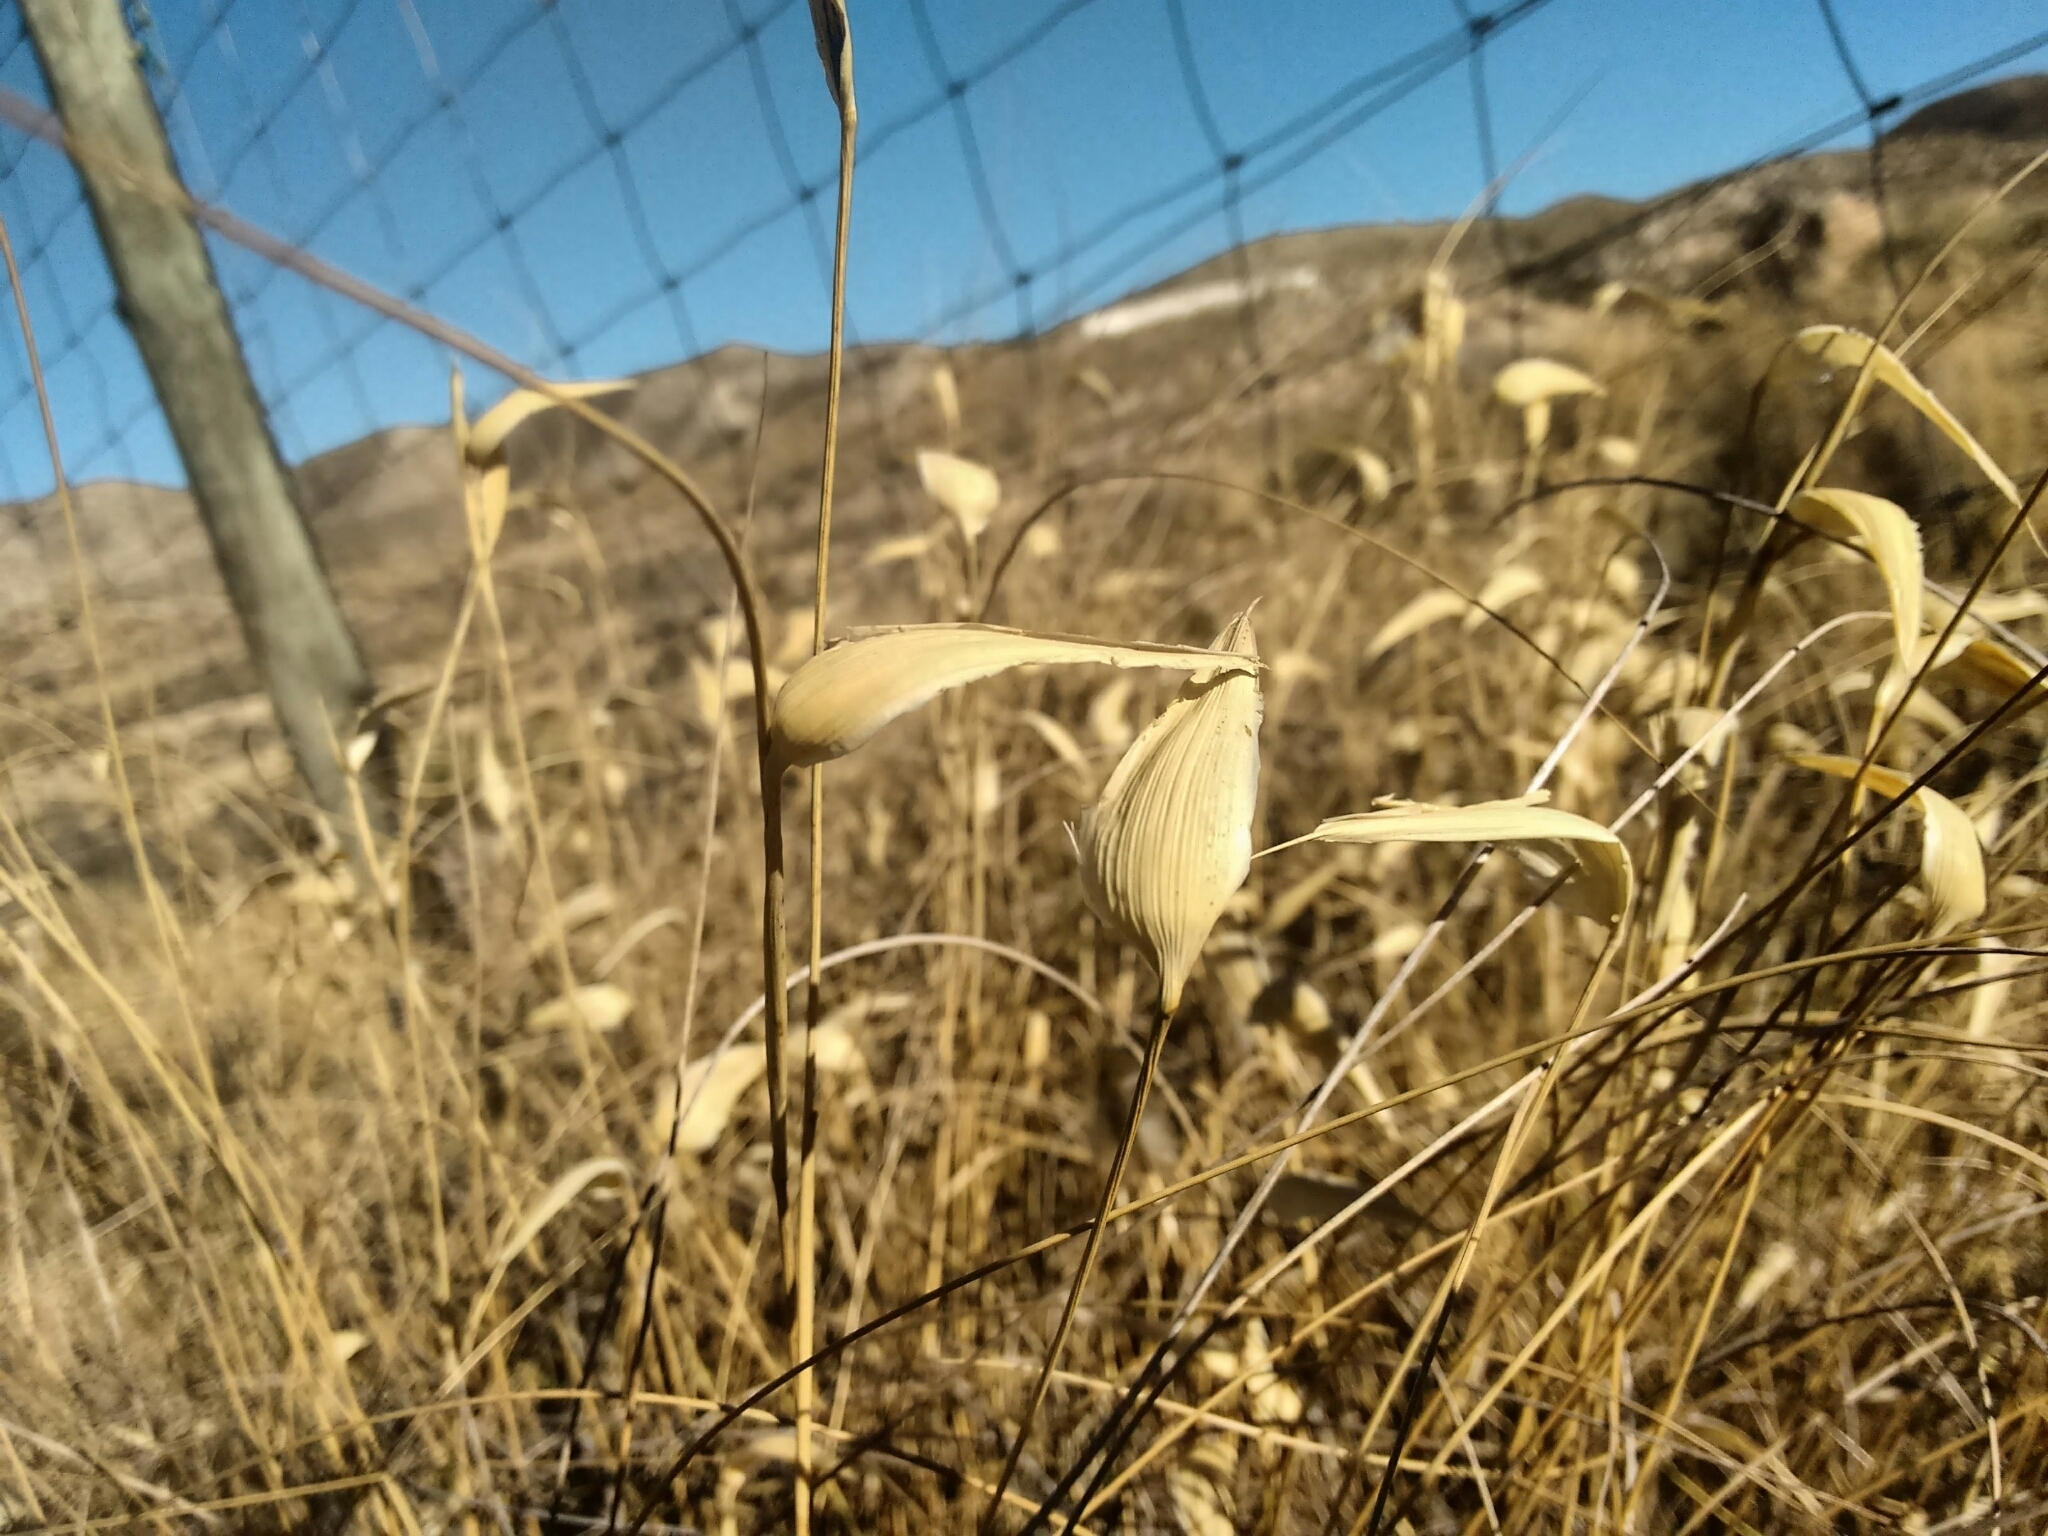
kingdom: Plantae
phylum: Tracheophyta
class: Liliopsida
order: Poales
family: Poaceae
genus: Lygeum
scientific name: Lygeum spartum
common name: Albardine
